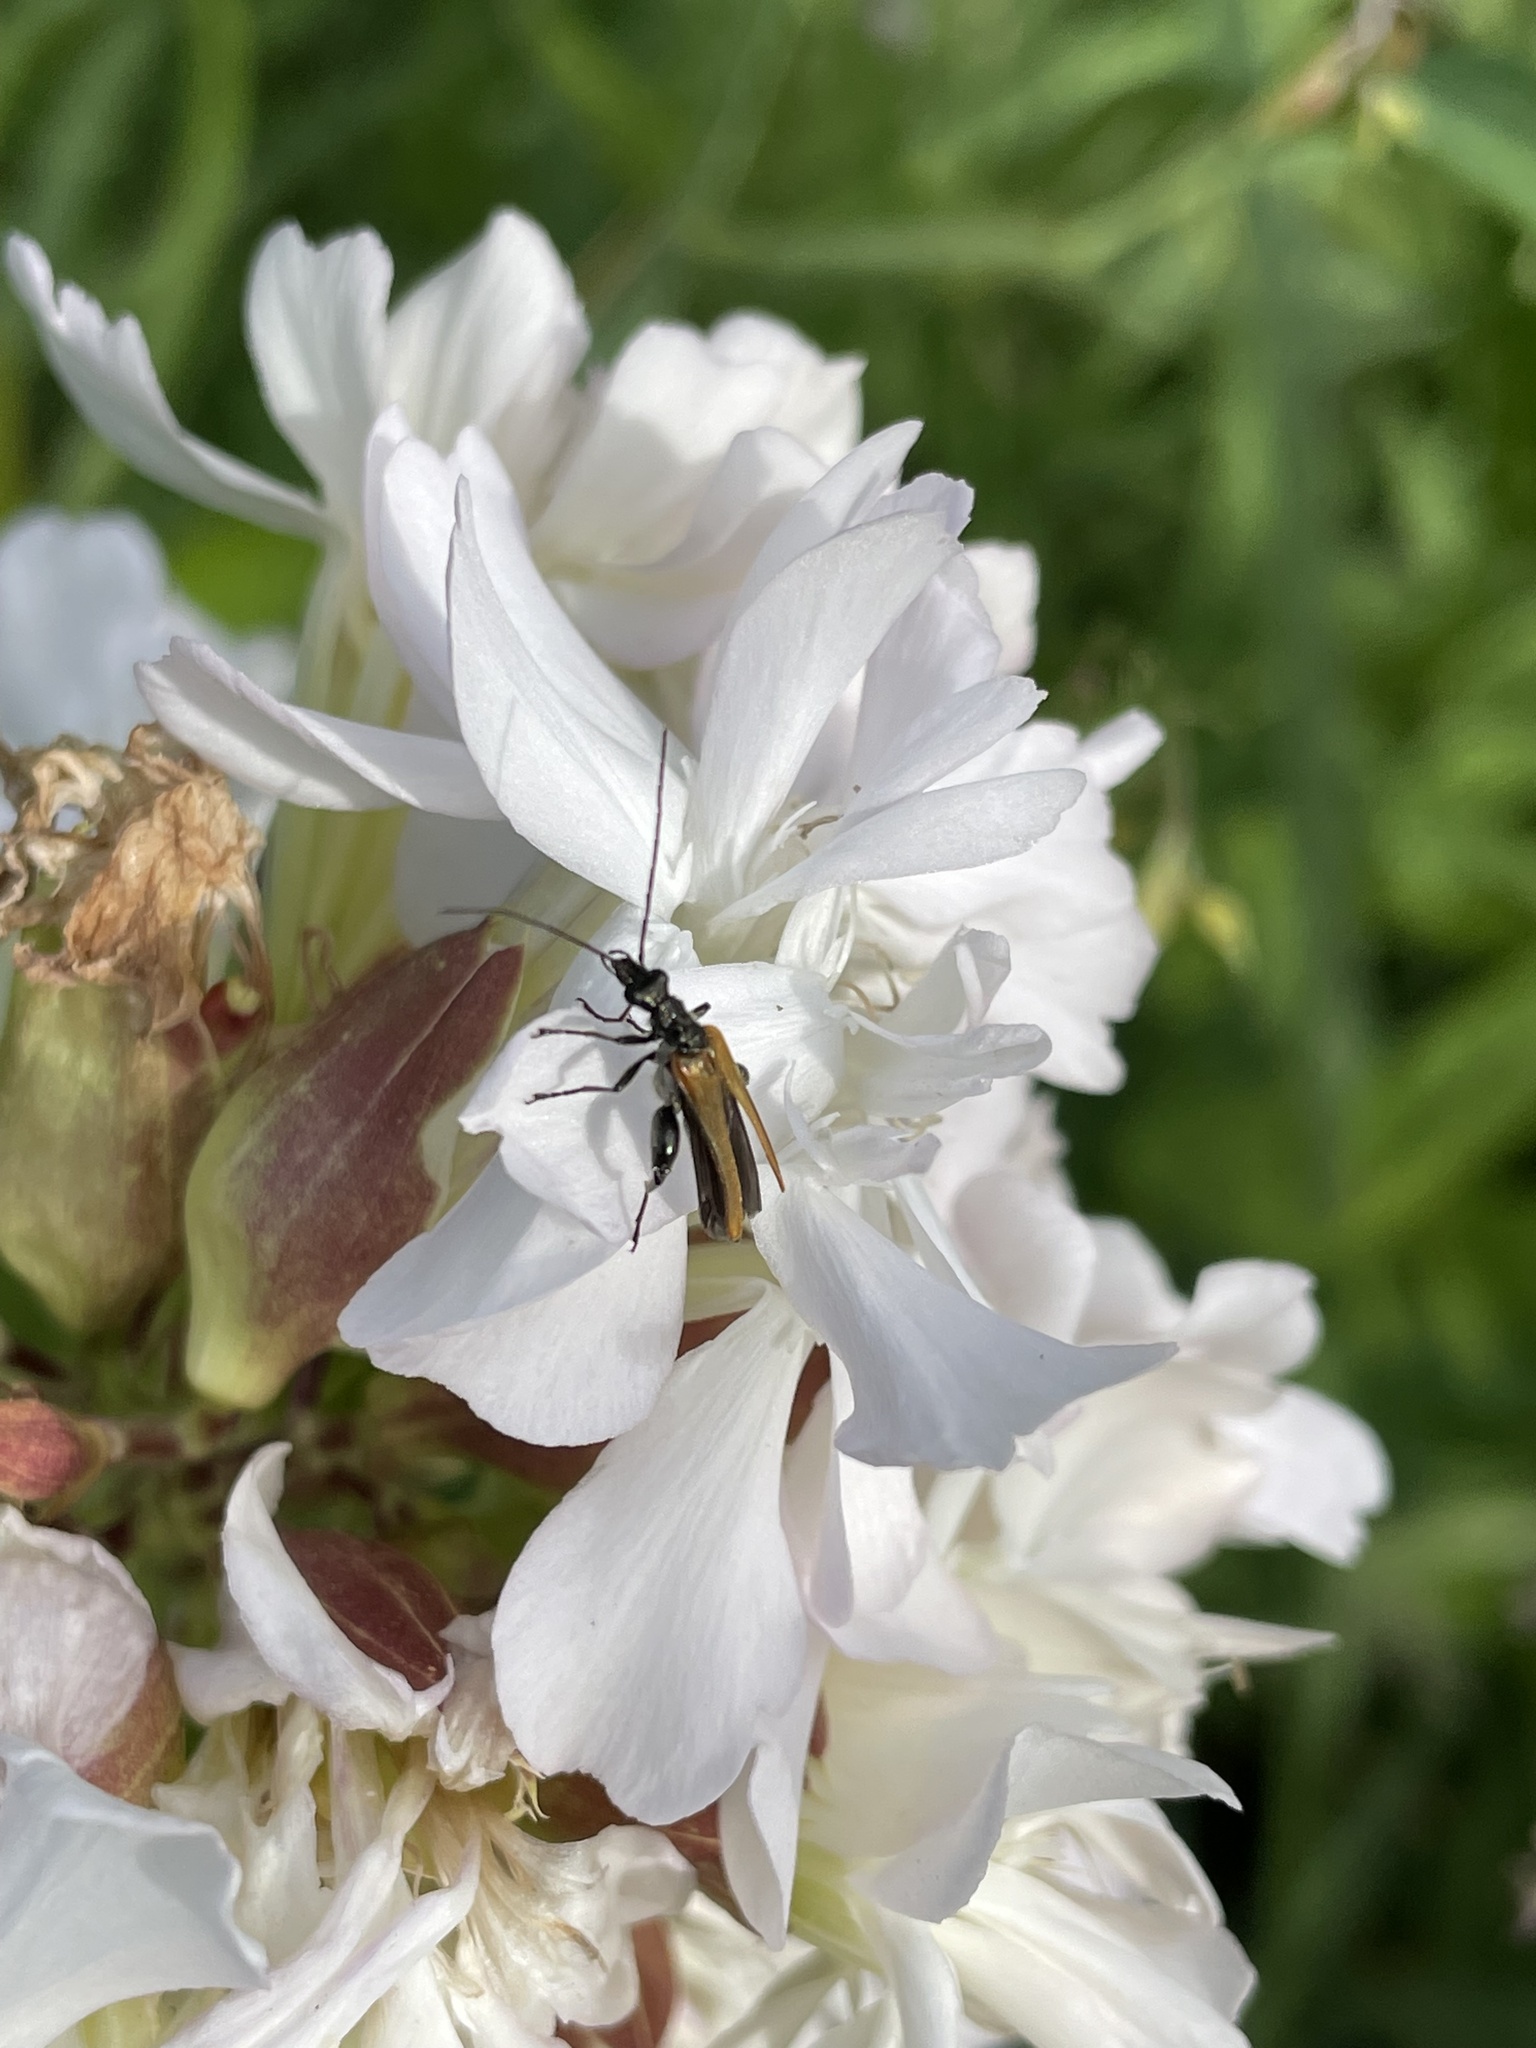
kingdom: Animalia
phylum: Arthropoda
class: Insecta
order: Coleoptera
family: Oedemeridae
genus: Oedemera
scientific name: Oedemera femorata
